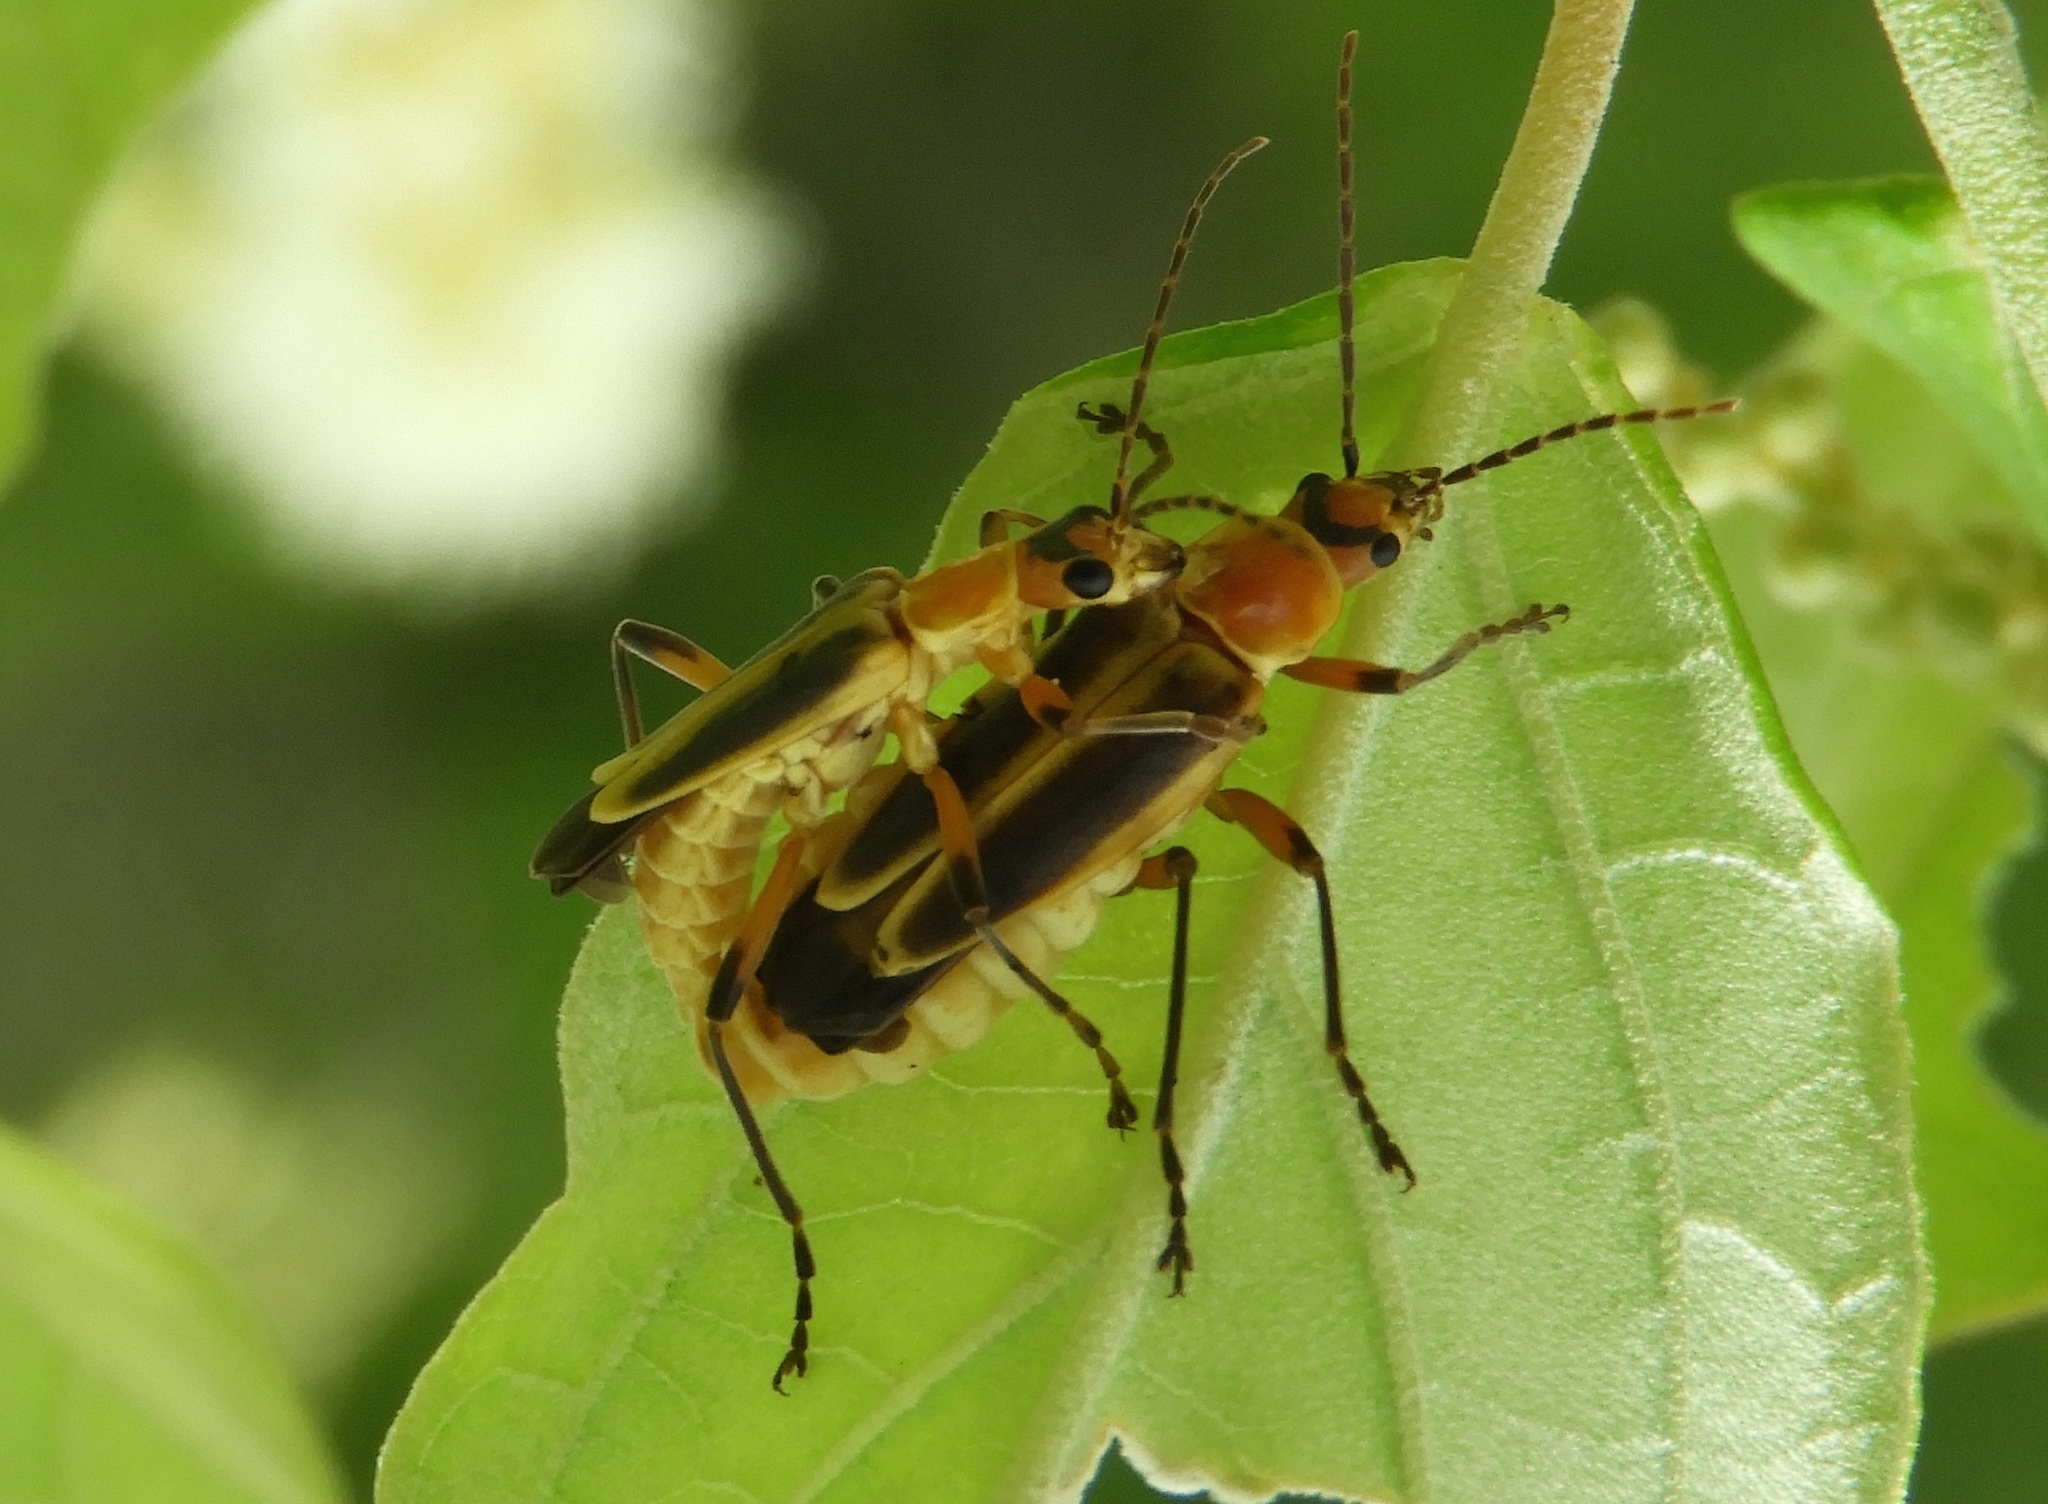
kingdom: Animalia
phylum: Arthropoda
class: Insecta
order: Coleoptera
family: Cantharidae
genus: Chauliognathus
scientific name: Chauliognathus
